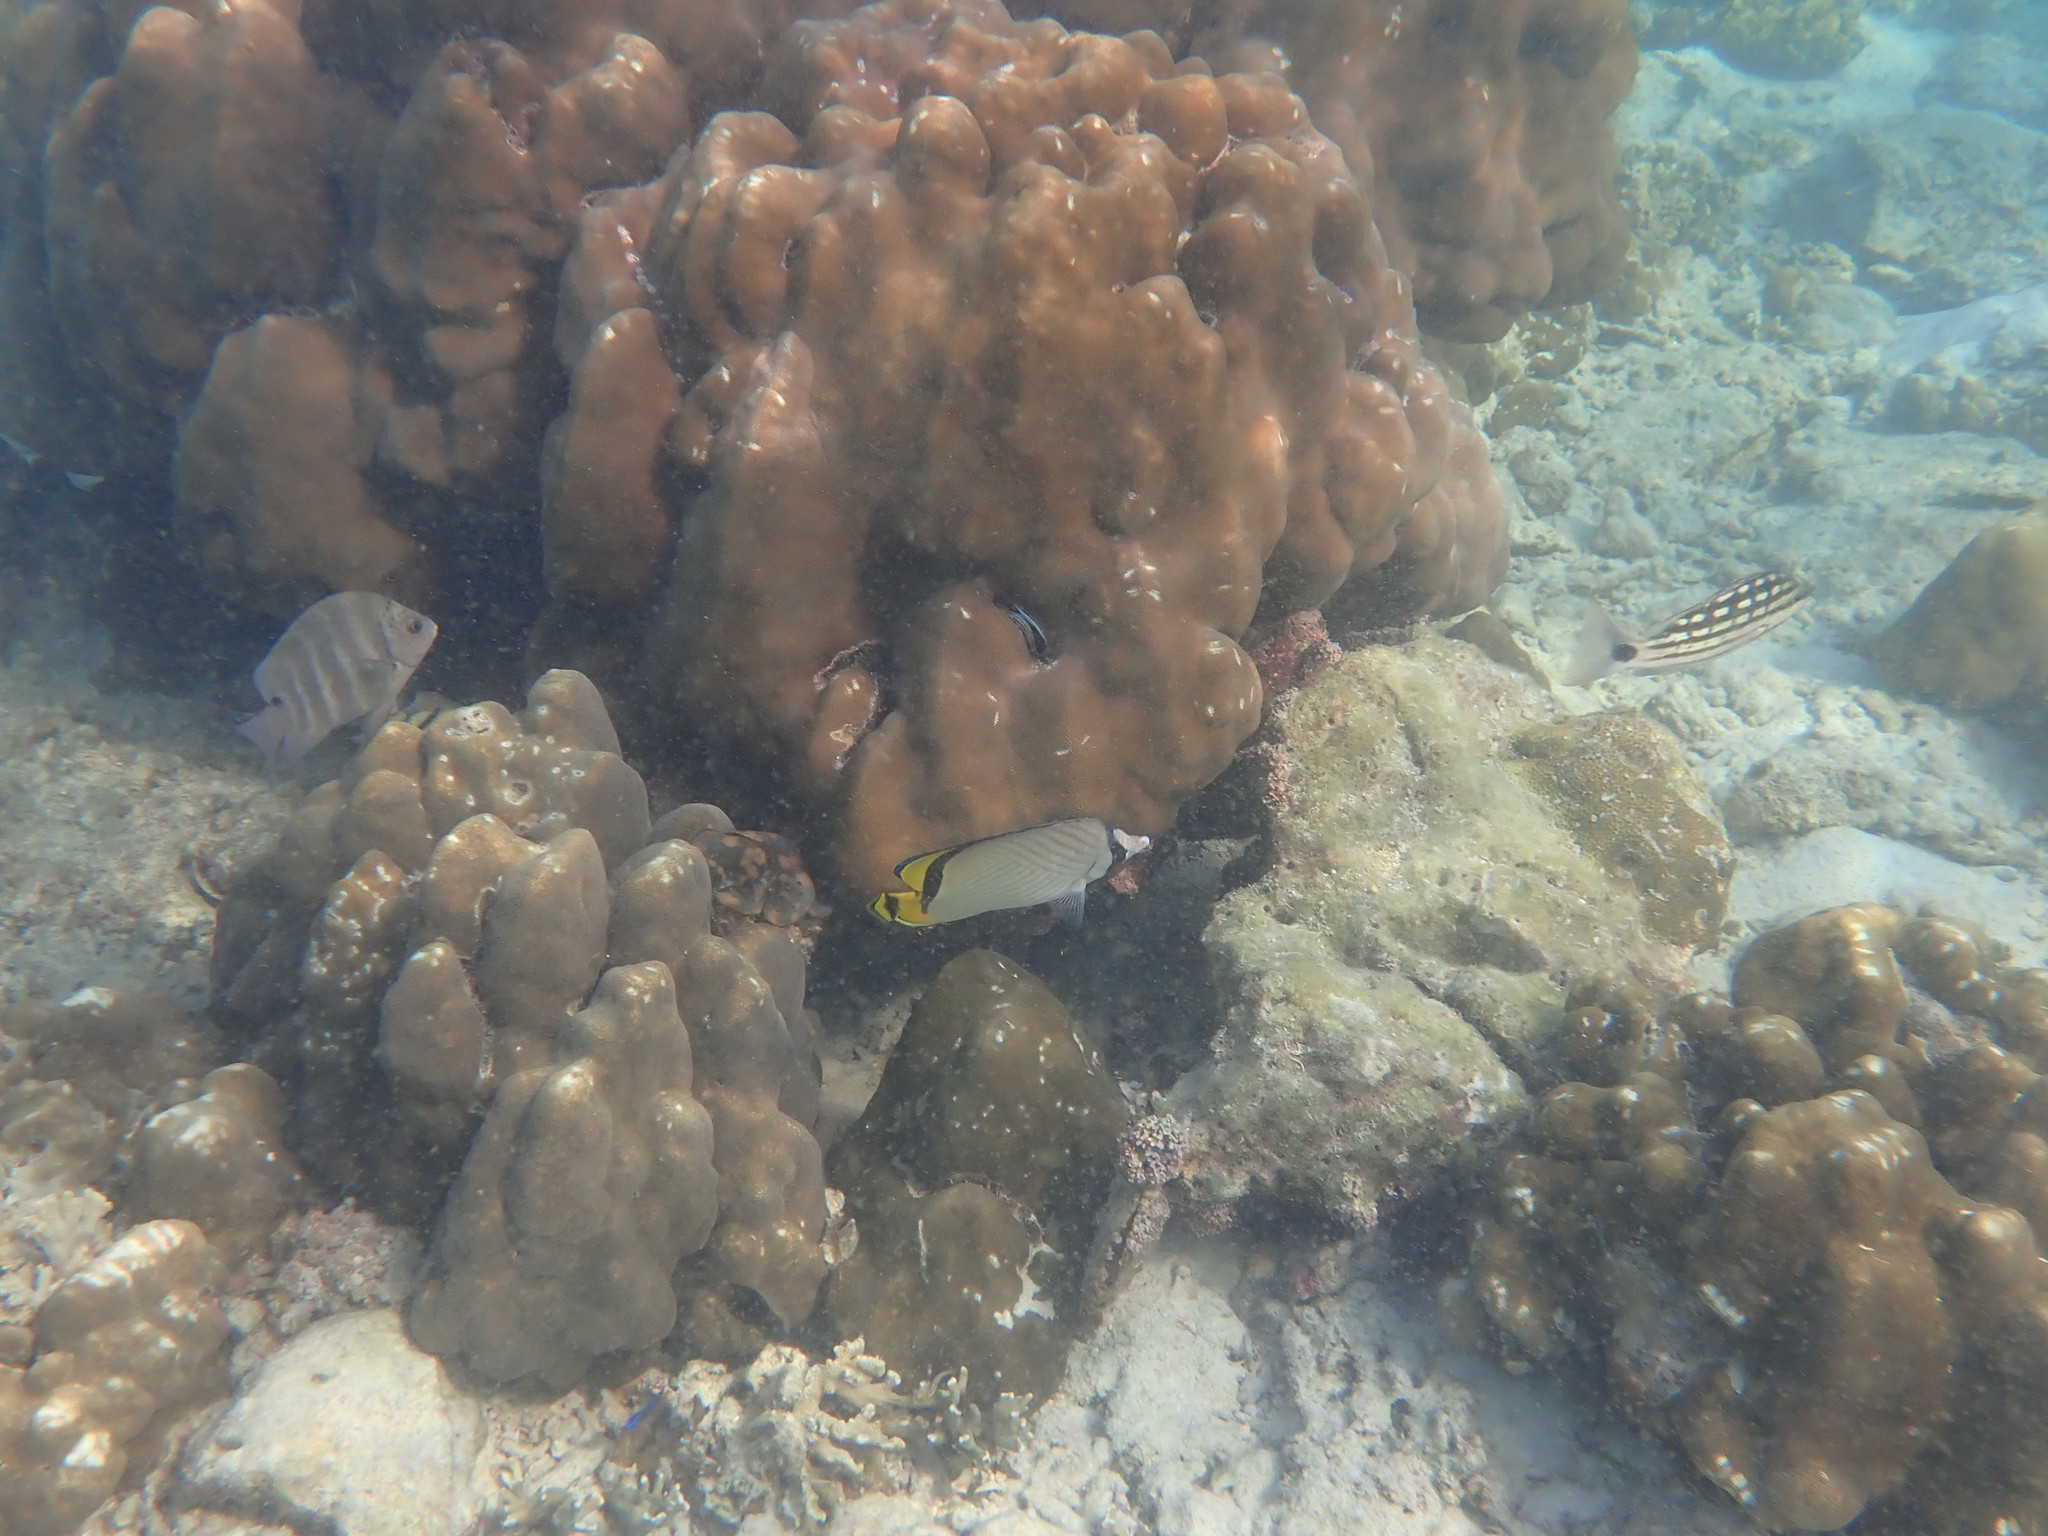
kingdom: Animalia
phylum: Chordata
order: Perciformes
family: Chaetodontidae
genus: Chaetodon
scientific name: Chaetodon vagabundus
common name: Vagabond butterflyfish
